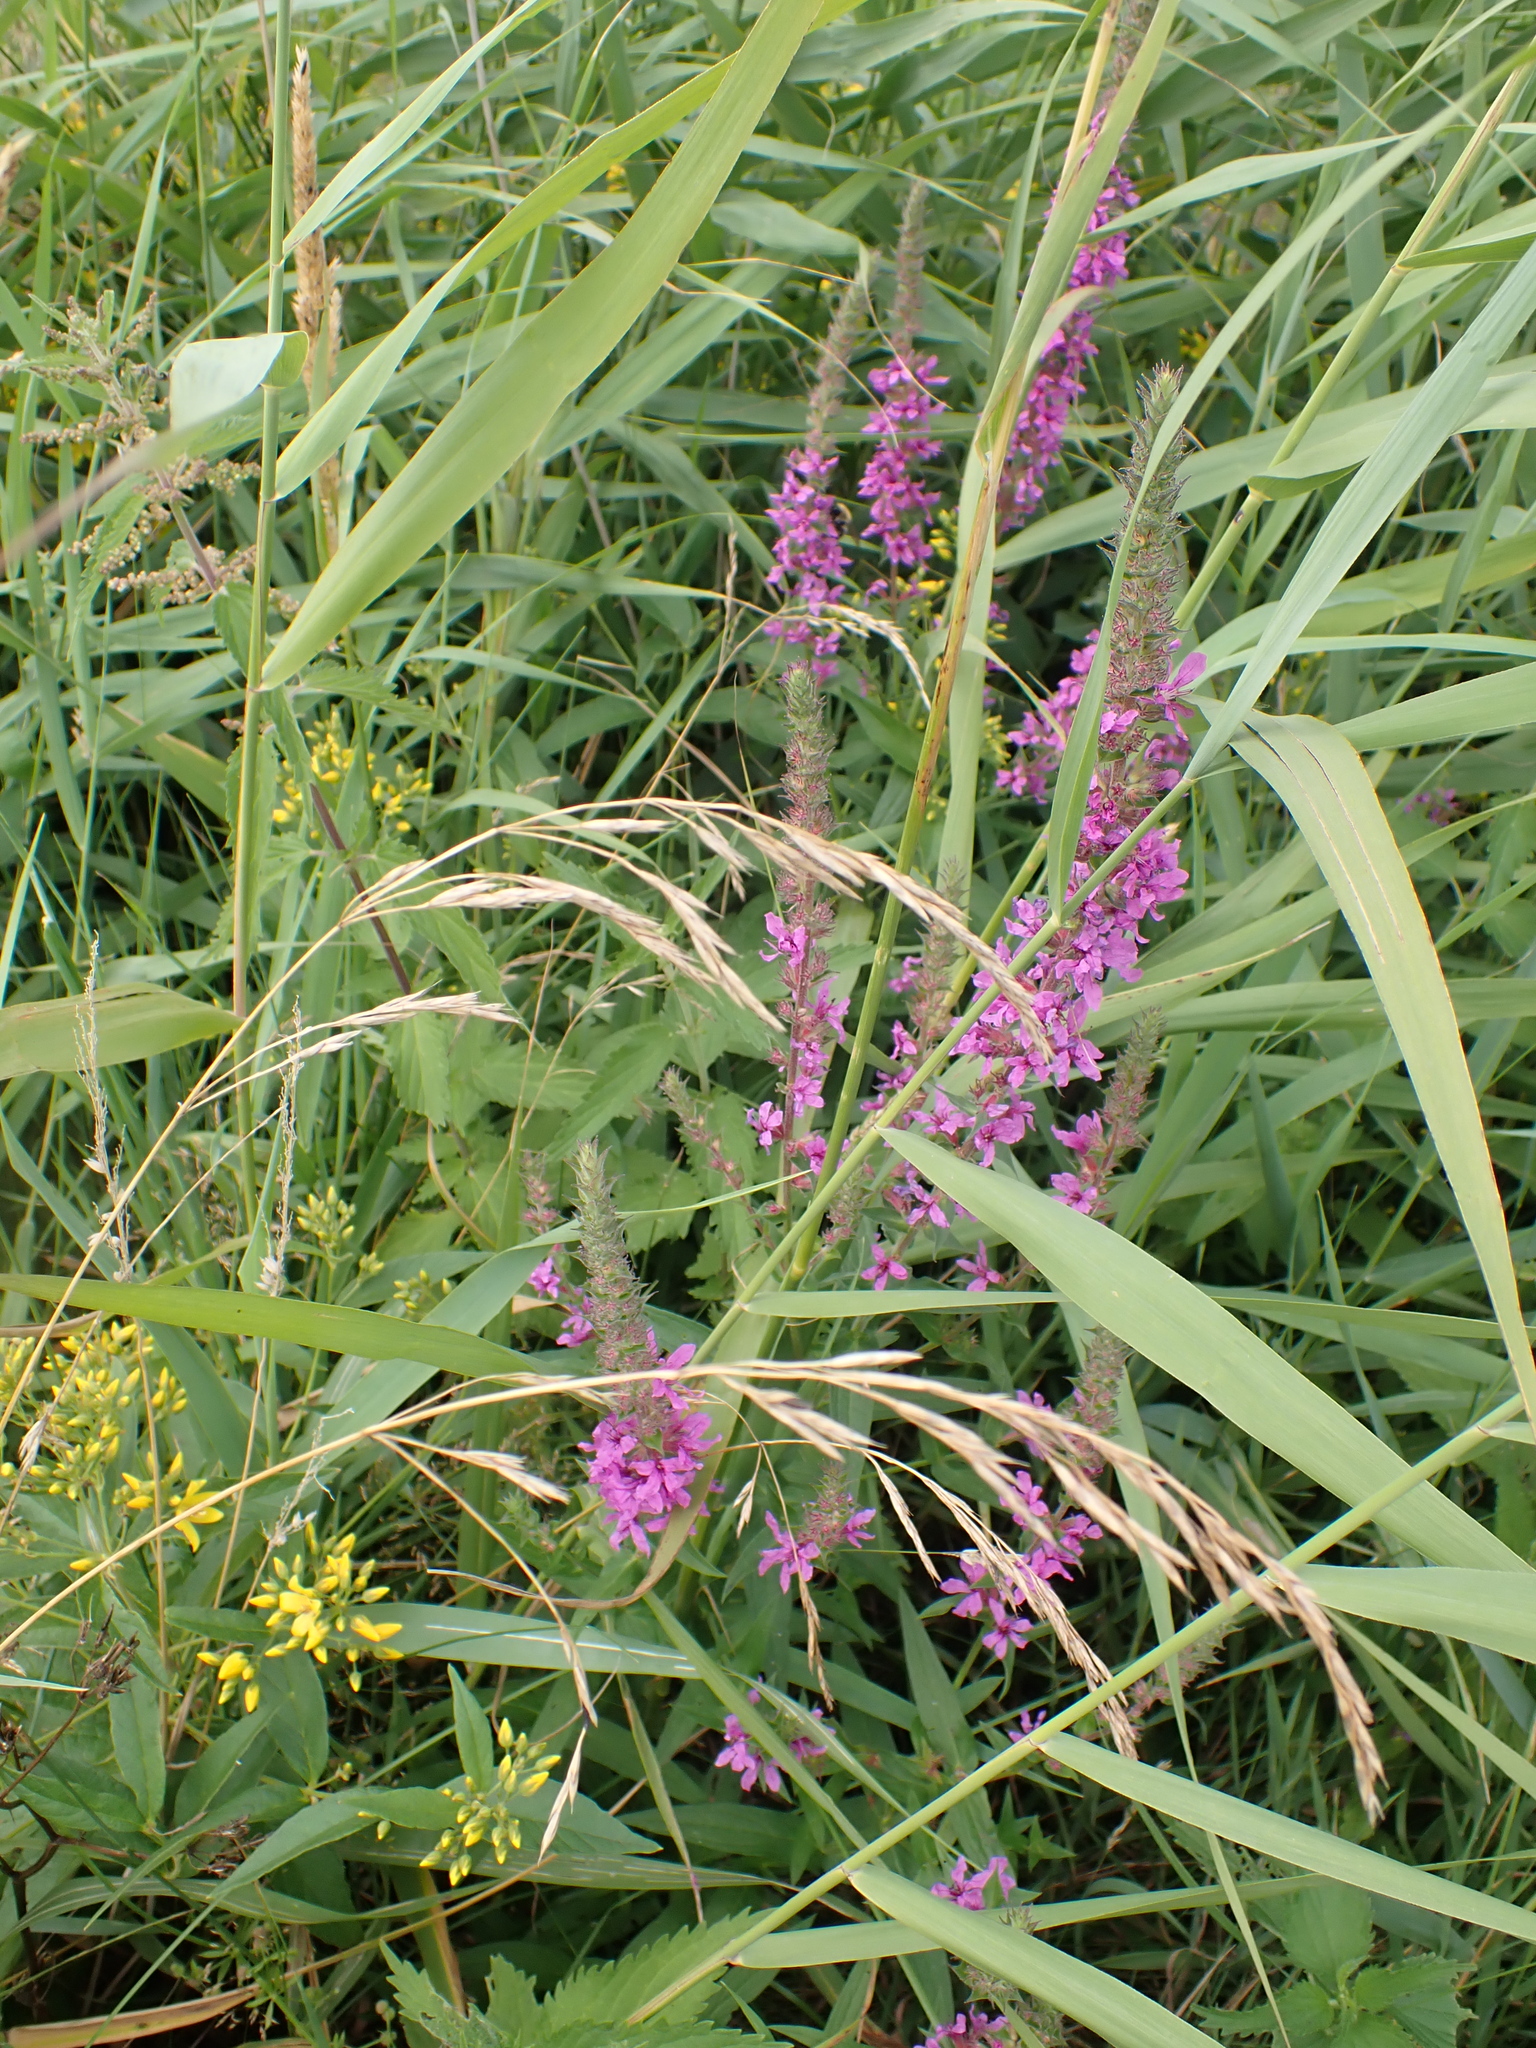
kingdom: Plantae
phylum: Tracheophyta
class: Magnoliopsida
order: Myrtales
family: Lythraceae
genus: Lythrum
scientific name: Lythrum salicaria
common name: Purple loosestrife
